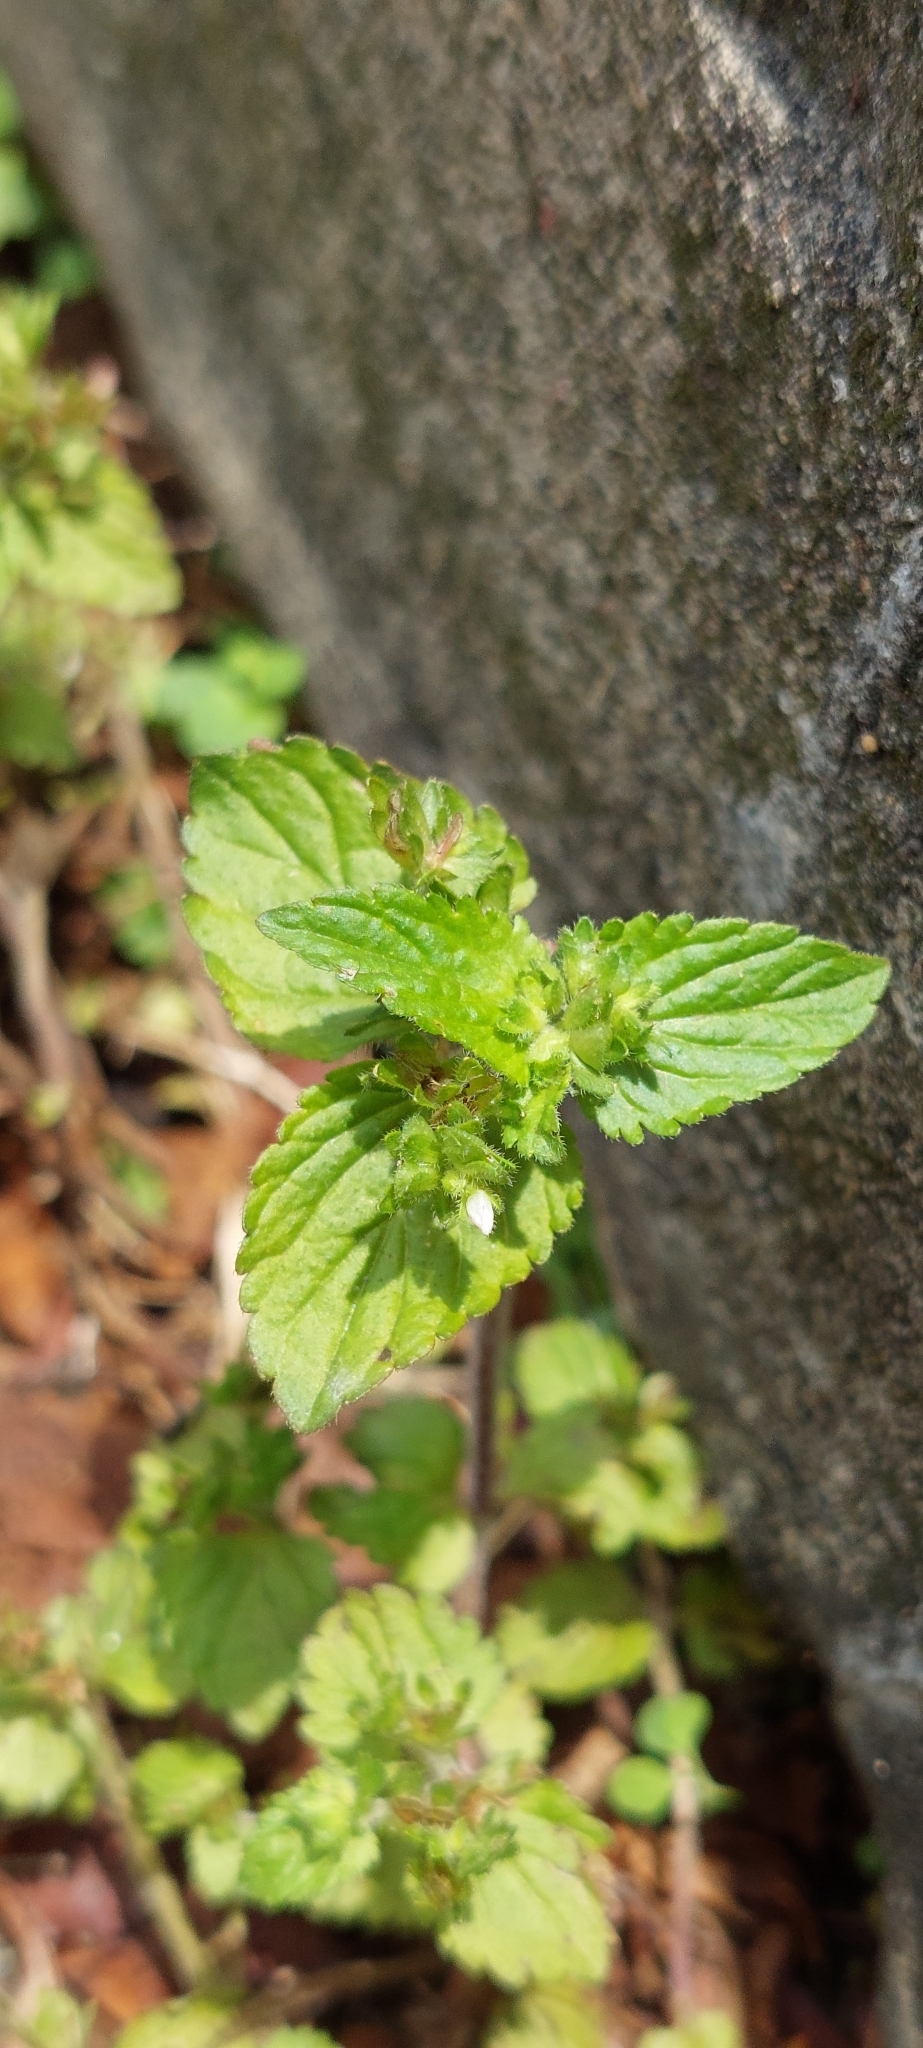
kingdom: Plantae
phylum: Tracheophyta
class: Magnoliopsida
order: Lamiales
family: Plantaginaceae
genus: Veronica
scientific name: Veronica javanica
